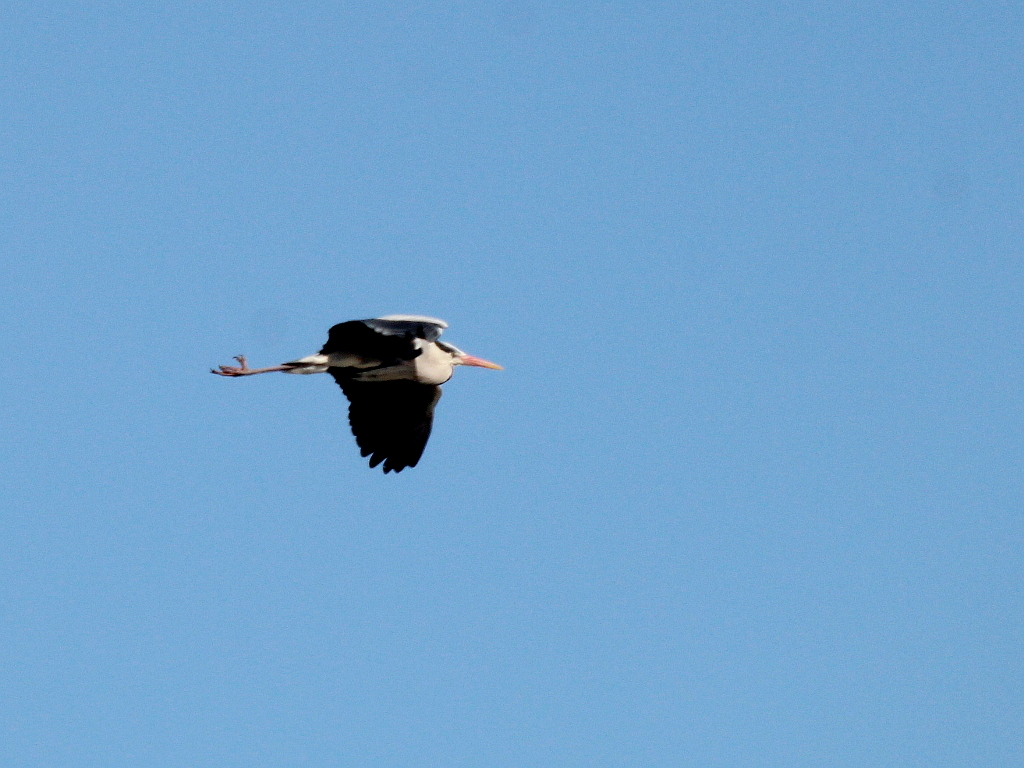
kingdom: Animalia
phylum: Chordata
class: Aves
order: Pelecaniformes
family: Ardeidae
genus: Ardea
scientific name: Ardea cinerea
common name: Grey heron
